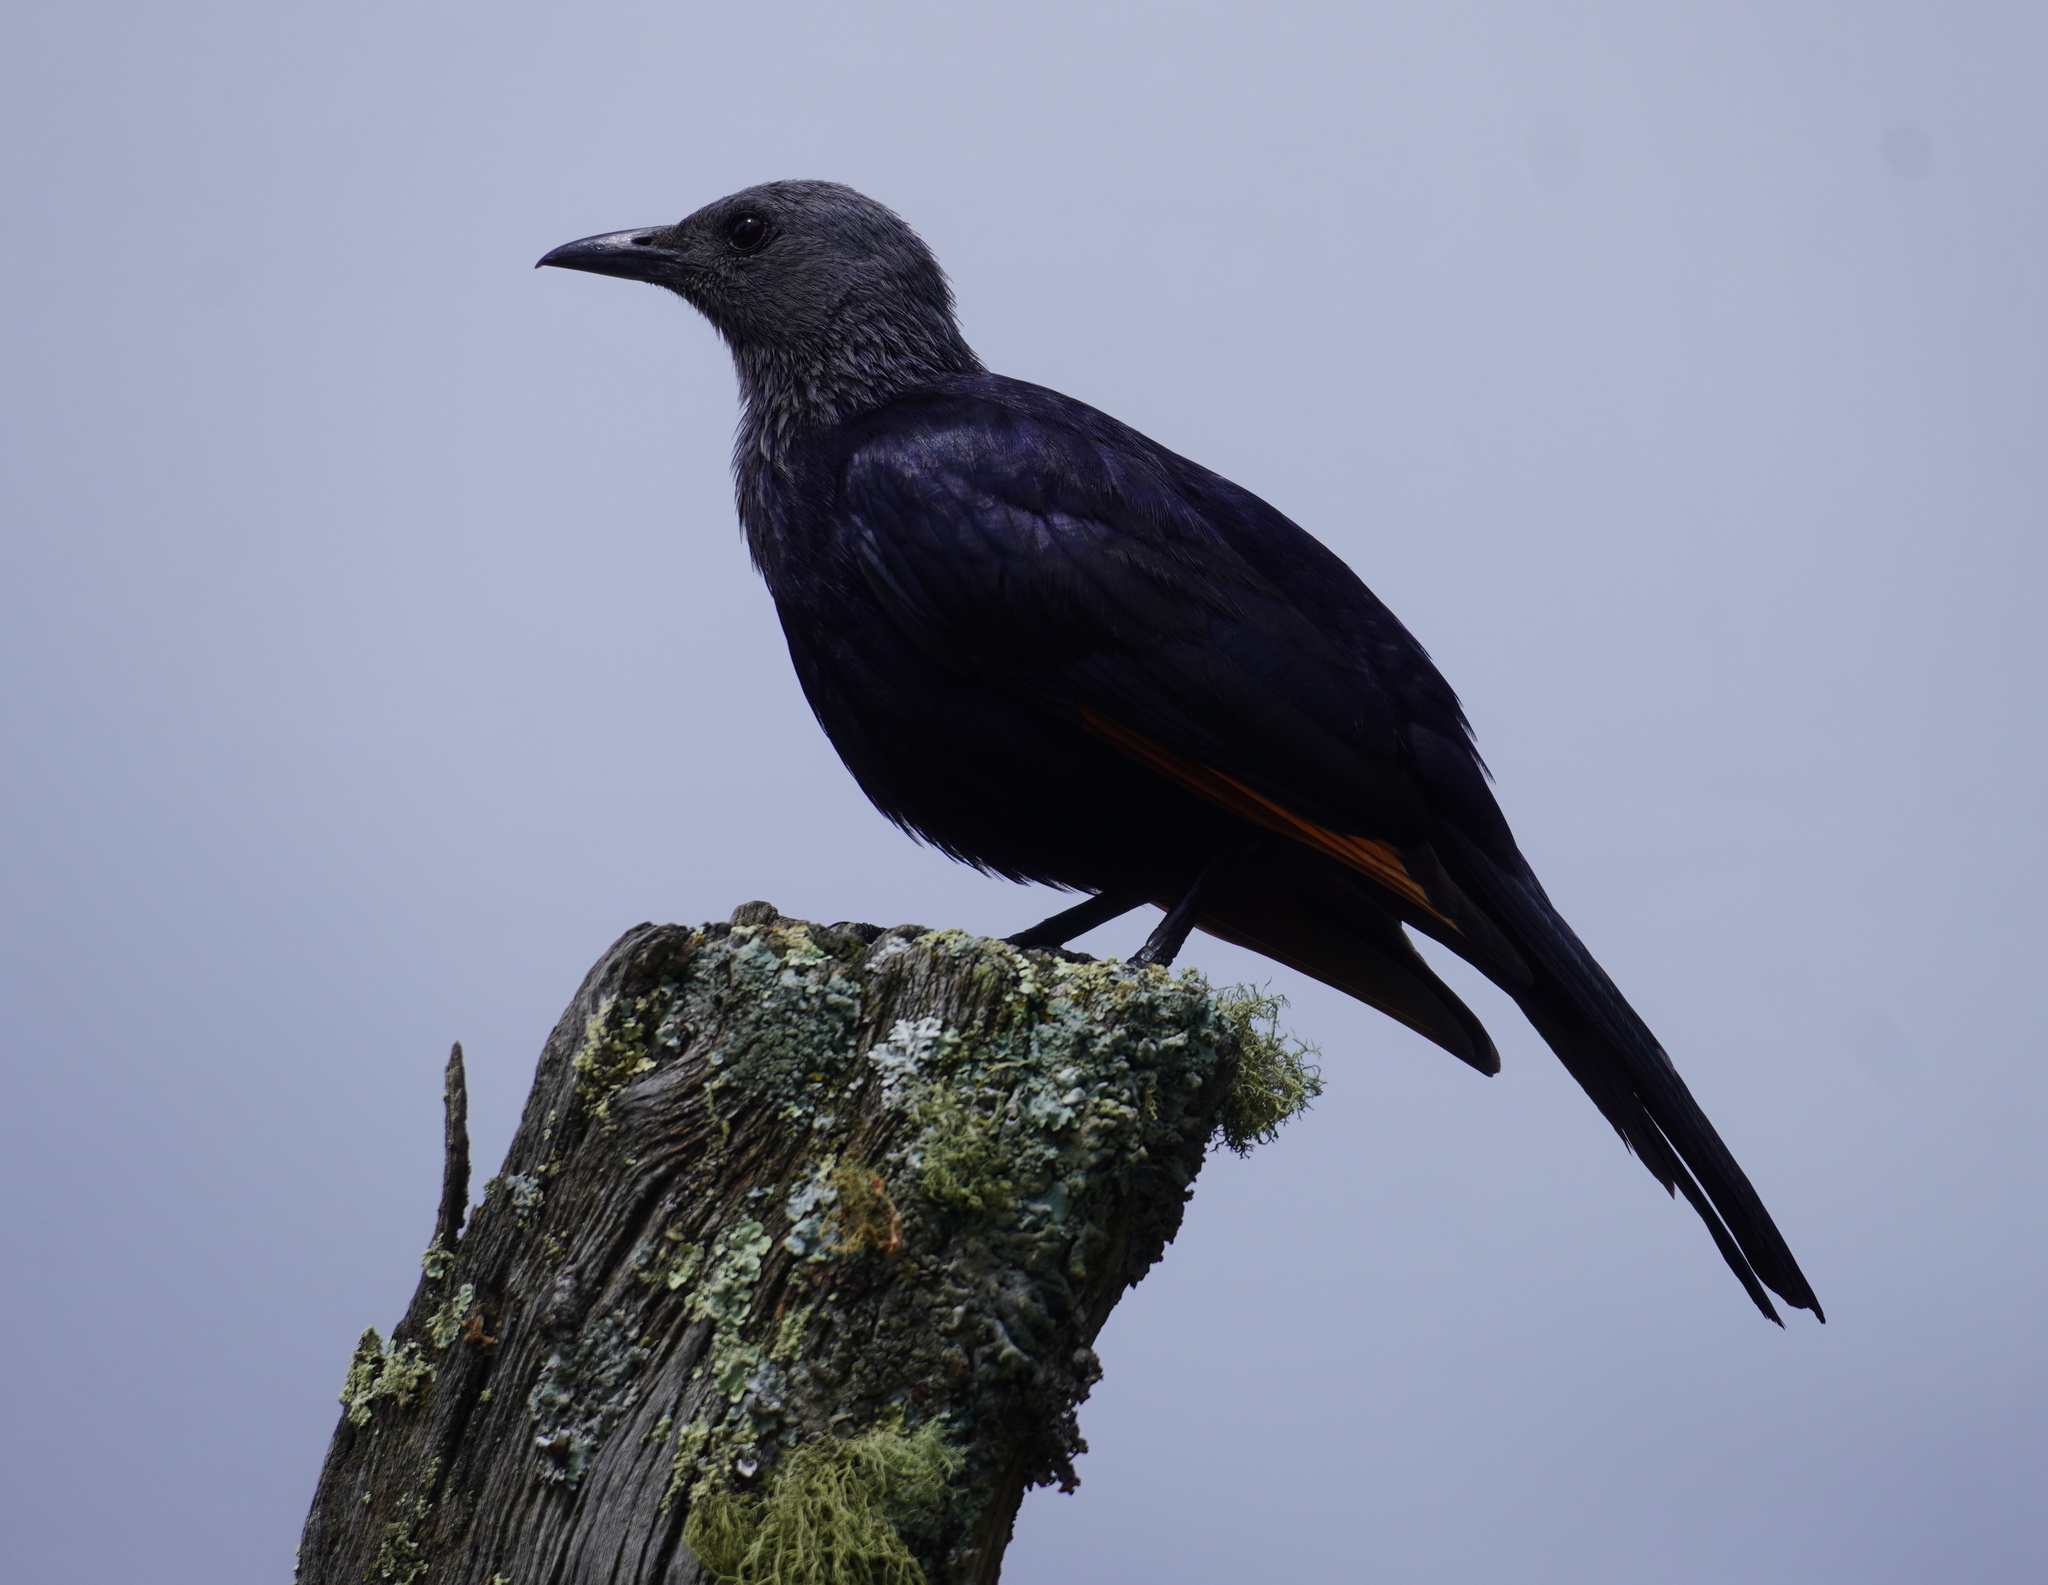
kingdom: Animalia
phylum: Chordata
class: Aves
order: Passeriformes
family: Sturnidae
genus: Onychognathus
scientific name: Onychognathus morio
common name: Red-winged starling
